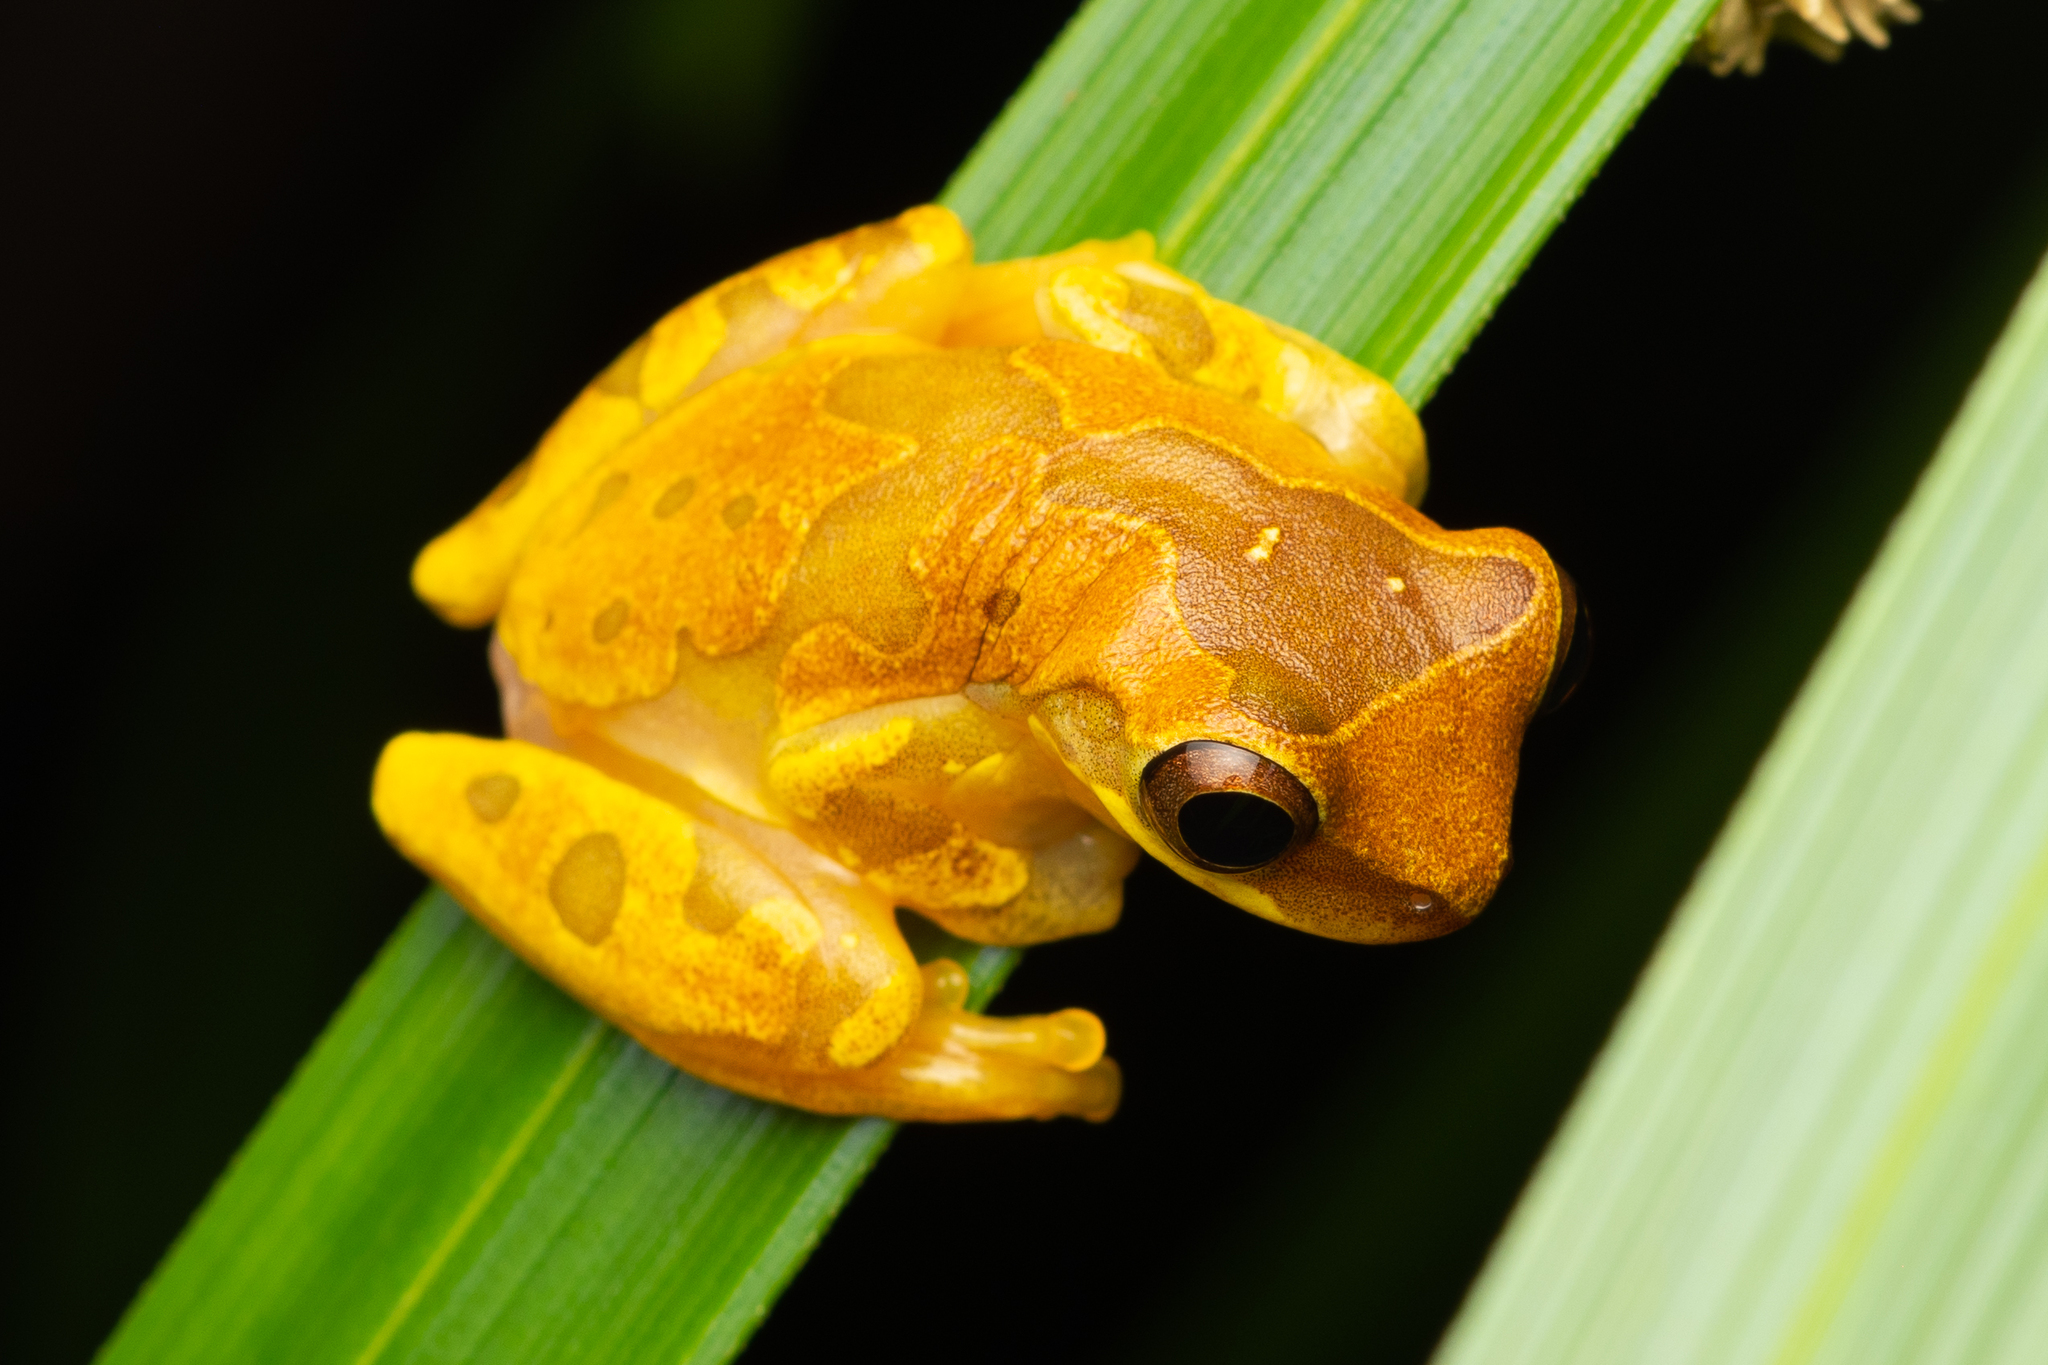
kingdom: Animalia
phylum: Chordata
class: Amphibia
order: Anura
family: Hylidae
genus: Dendropsophus
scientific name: Dendropsophus ebraccatus
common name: Hourglass treefrog
